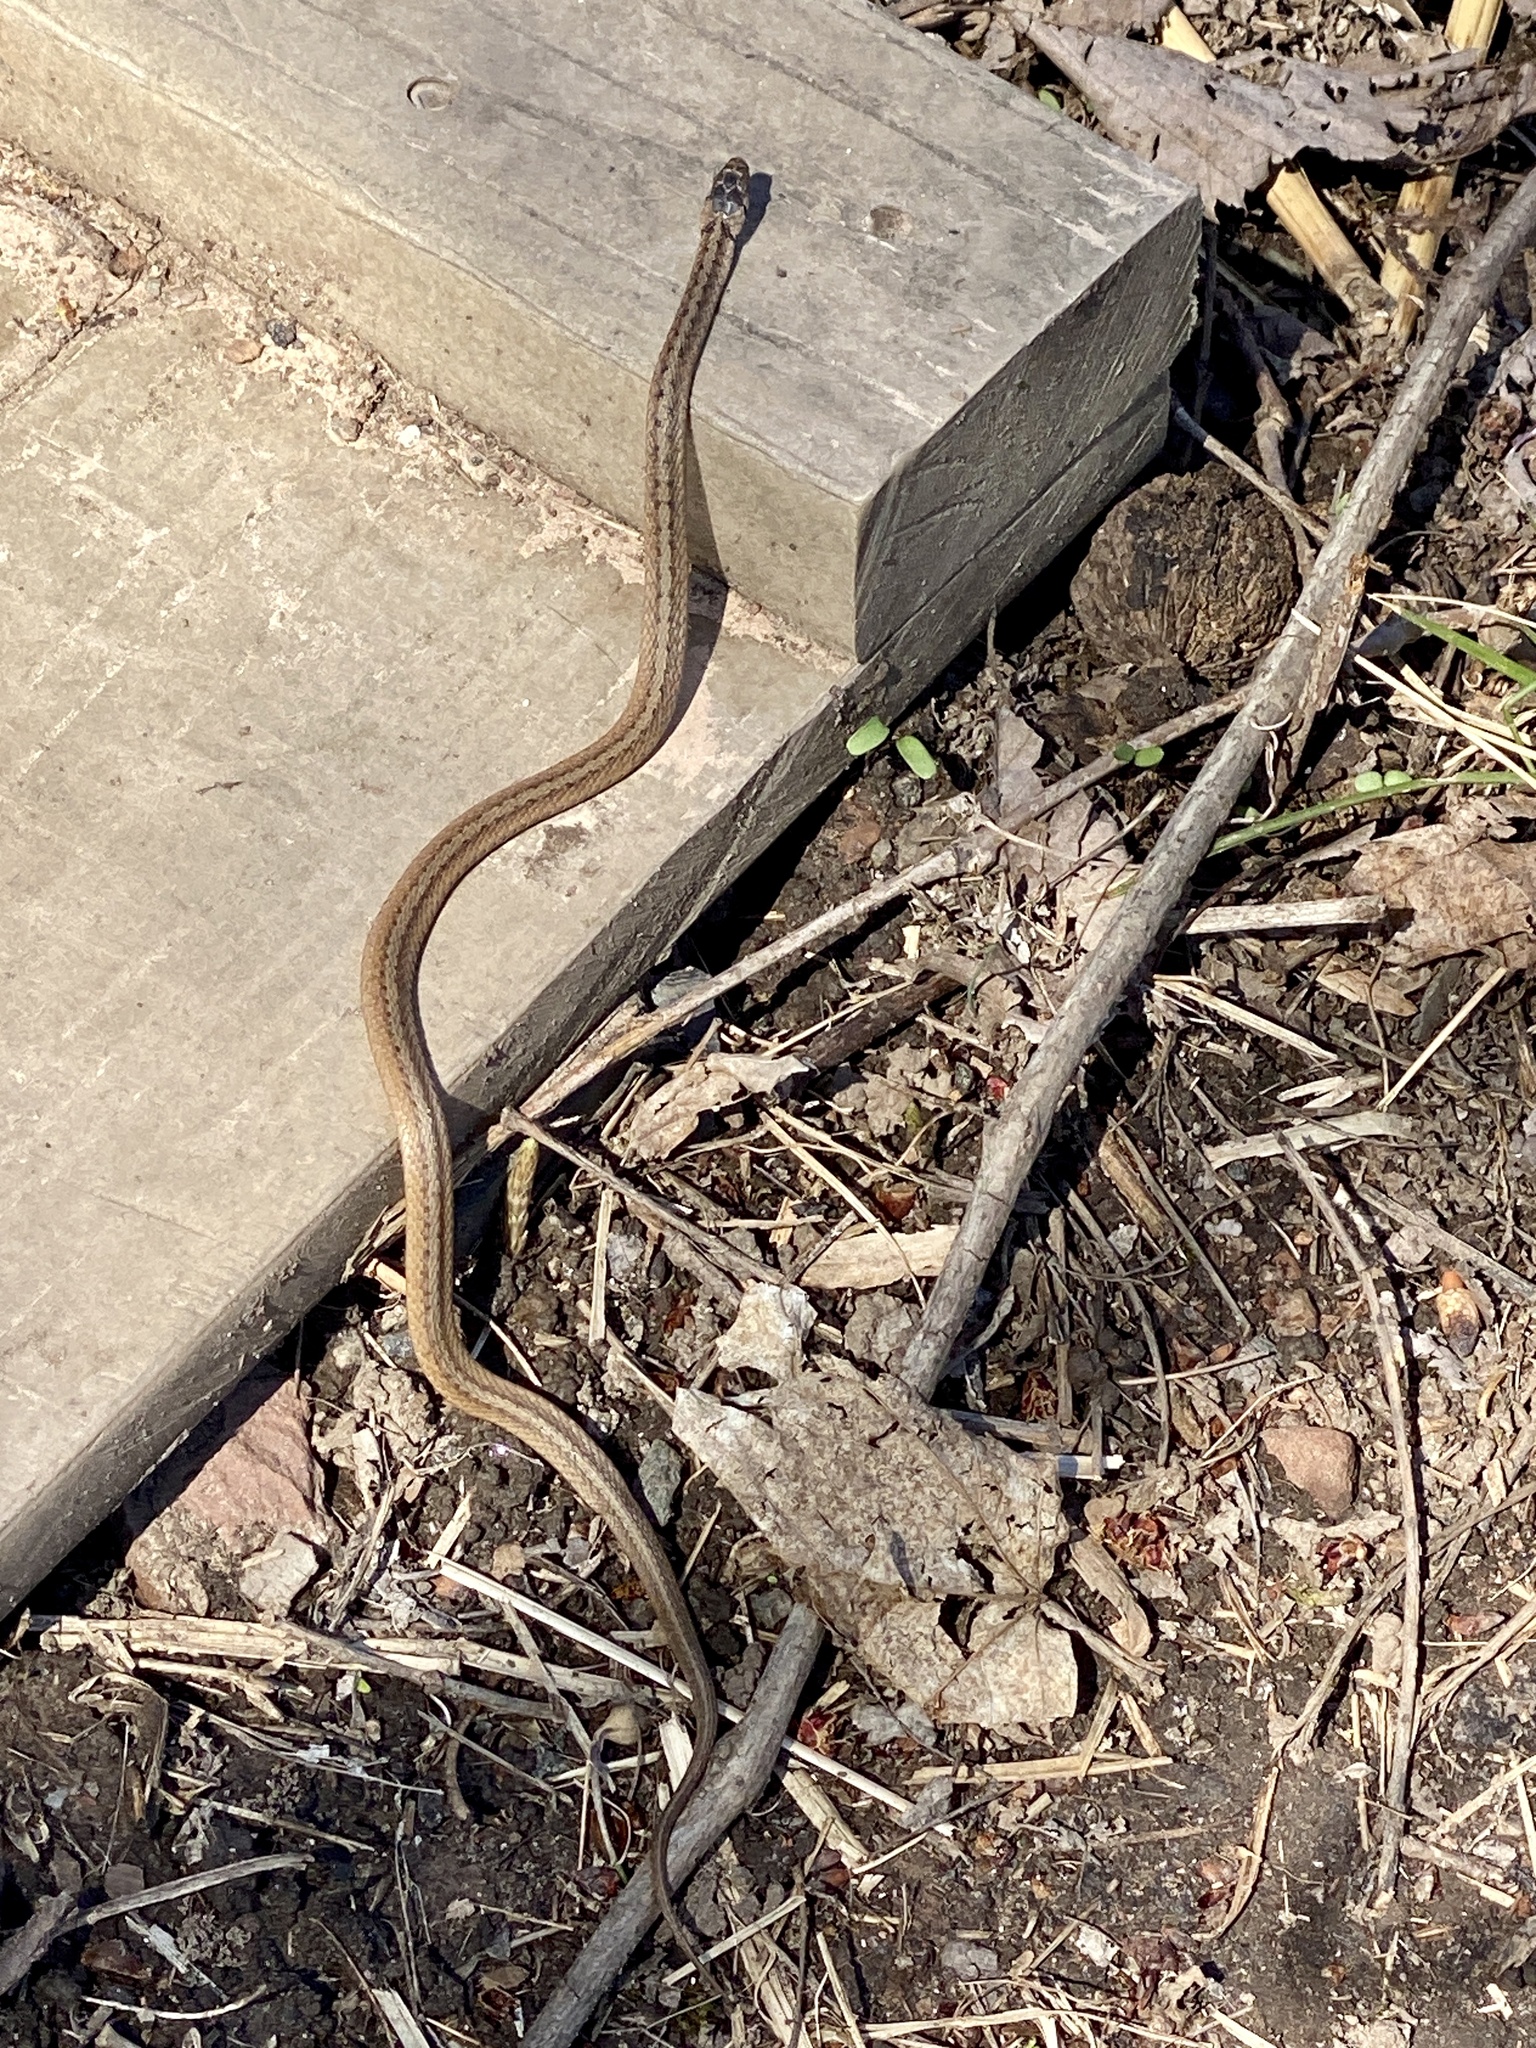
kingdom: Animalia
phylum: Chordata
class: Squamata
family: Colubridae
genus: Storeria
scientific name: Storeria dekayi
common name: (dekay’s) brown snake
